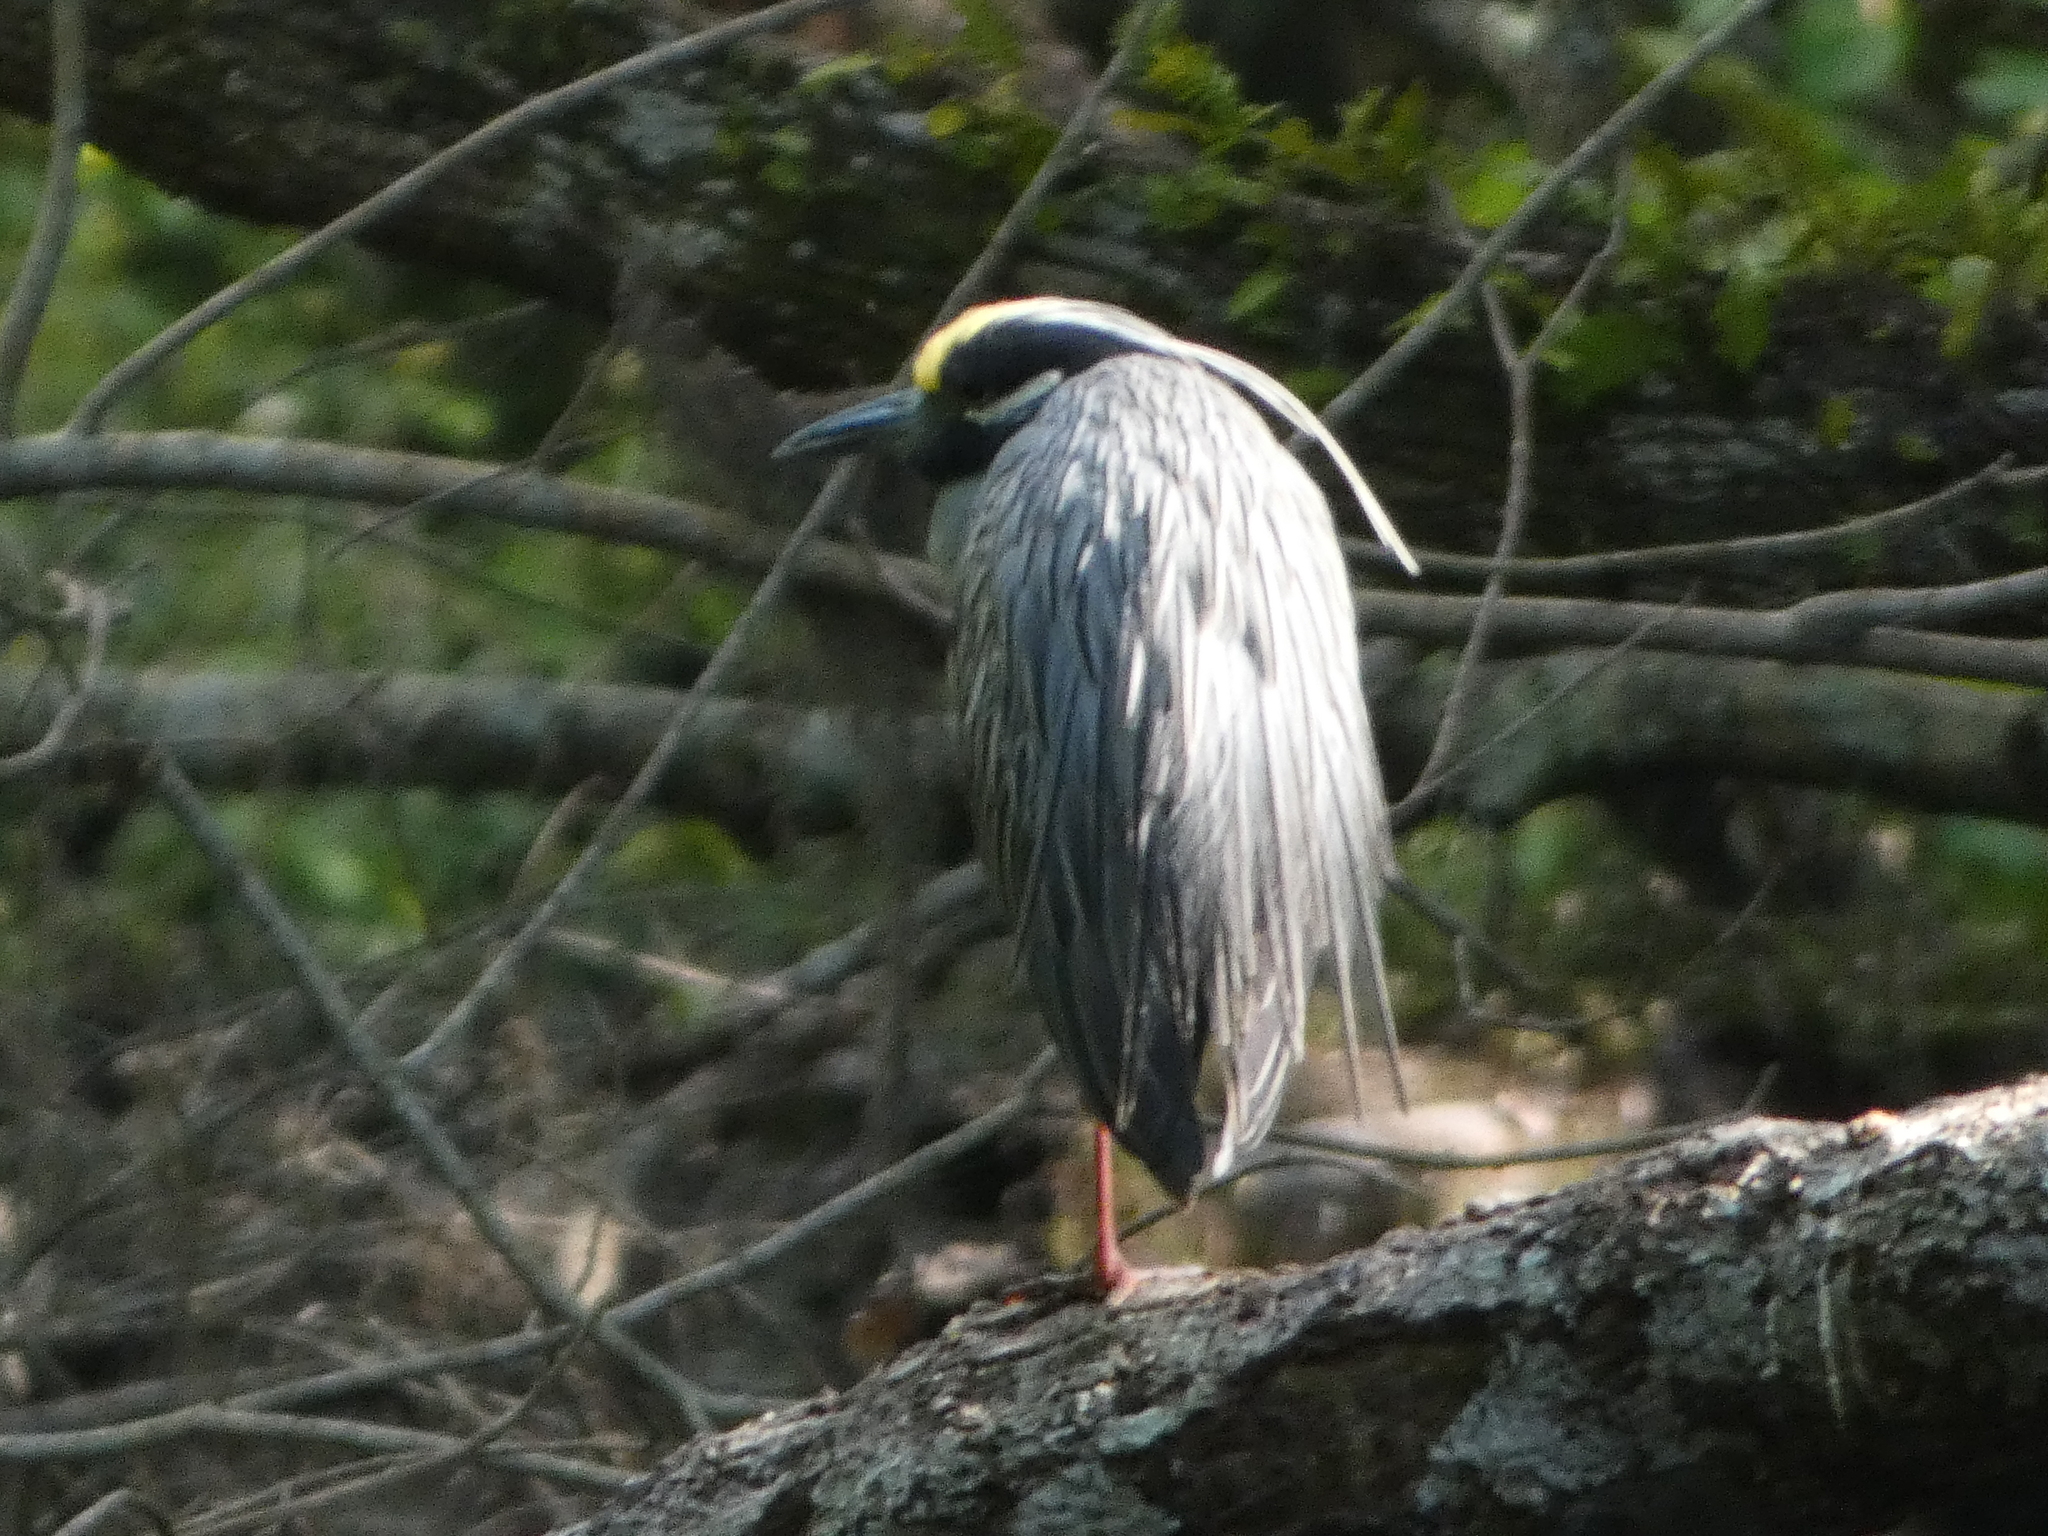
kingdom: Animalia
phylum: Chordata
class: Aves
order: Pelecaniformes
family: Ardeidae
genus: Nyctanassa
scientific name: Nyctanassa violacea
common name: Yellow-crowned night heron
